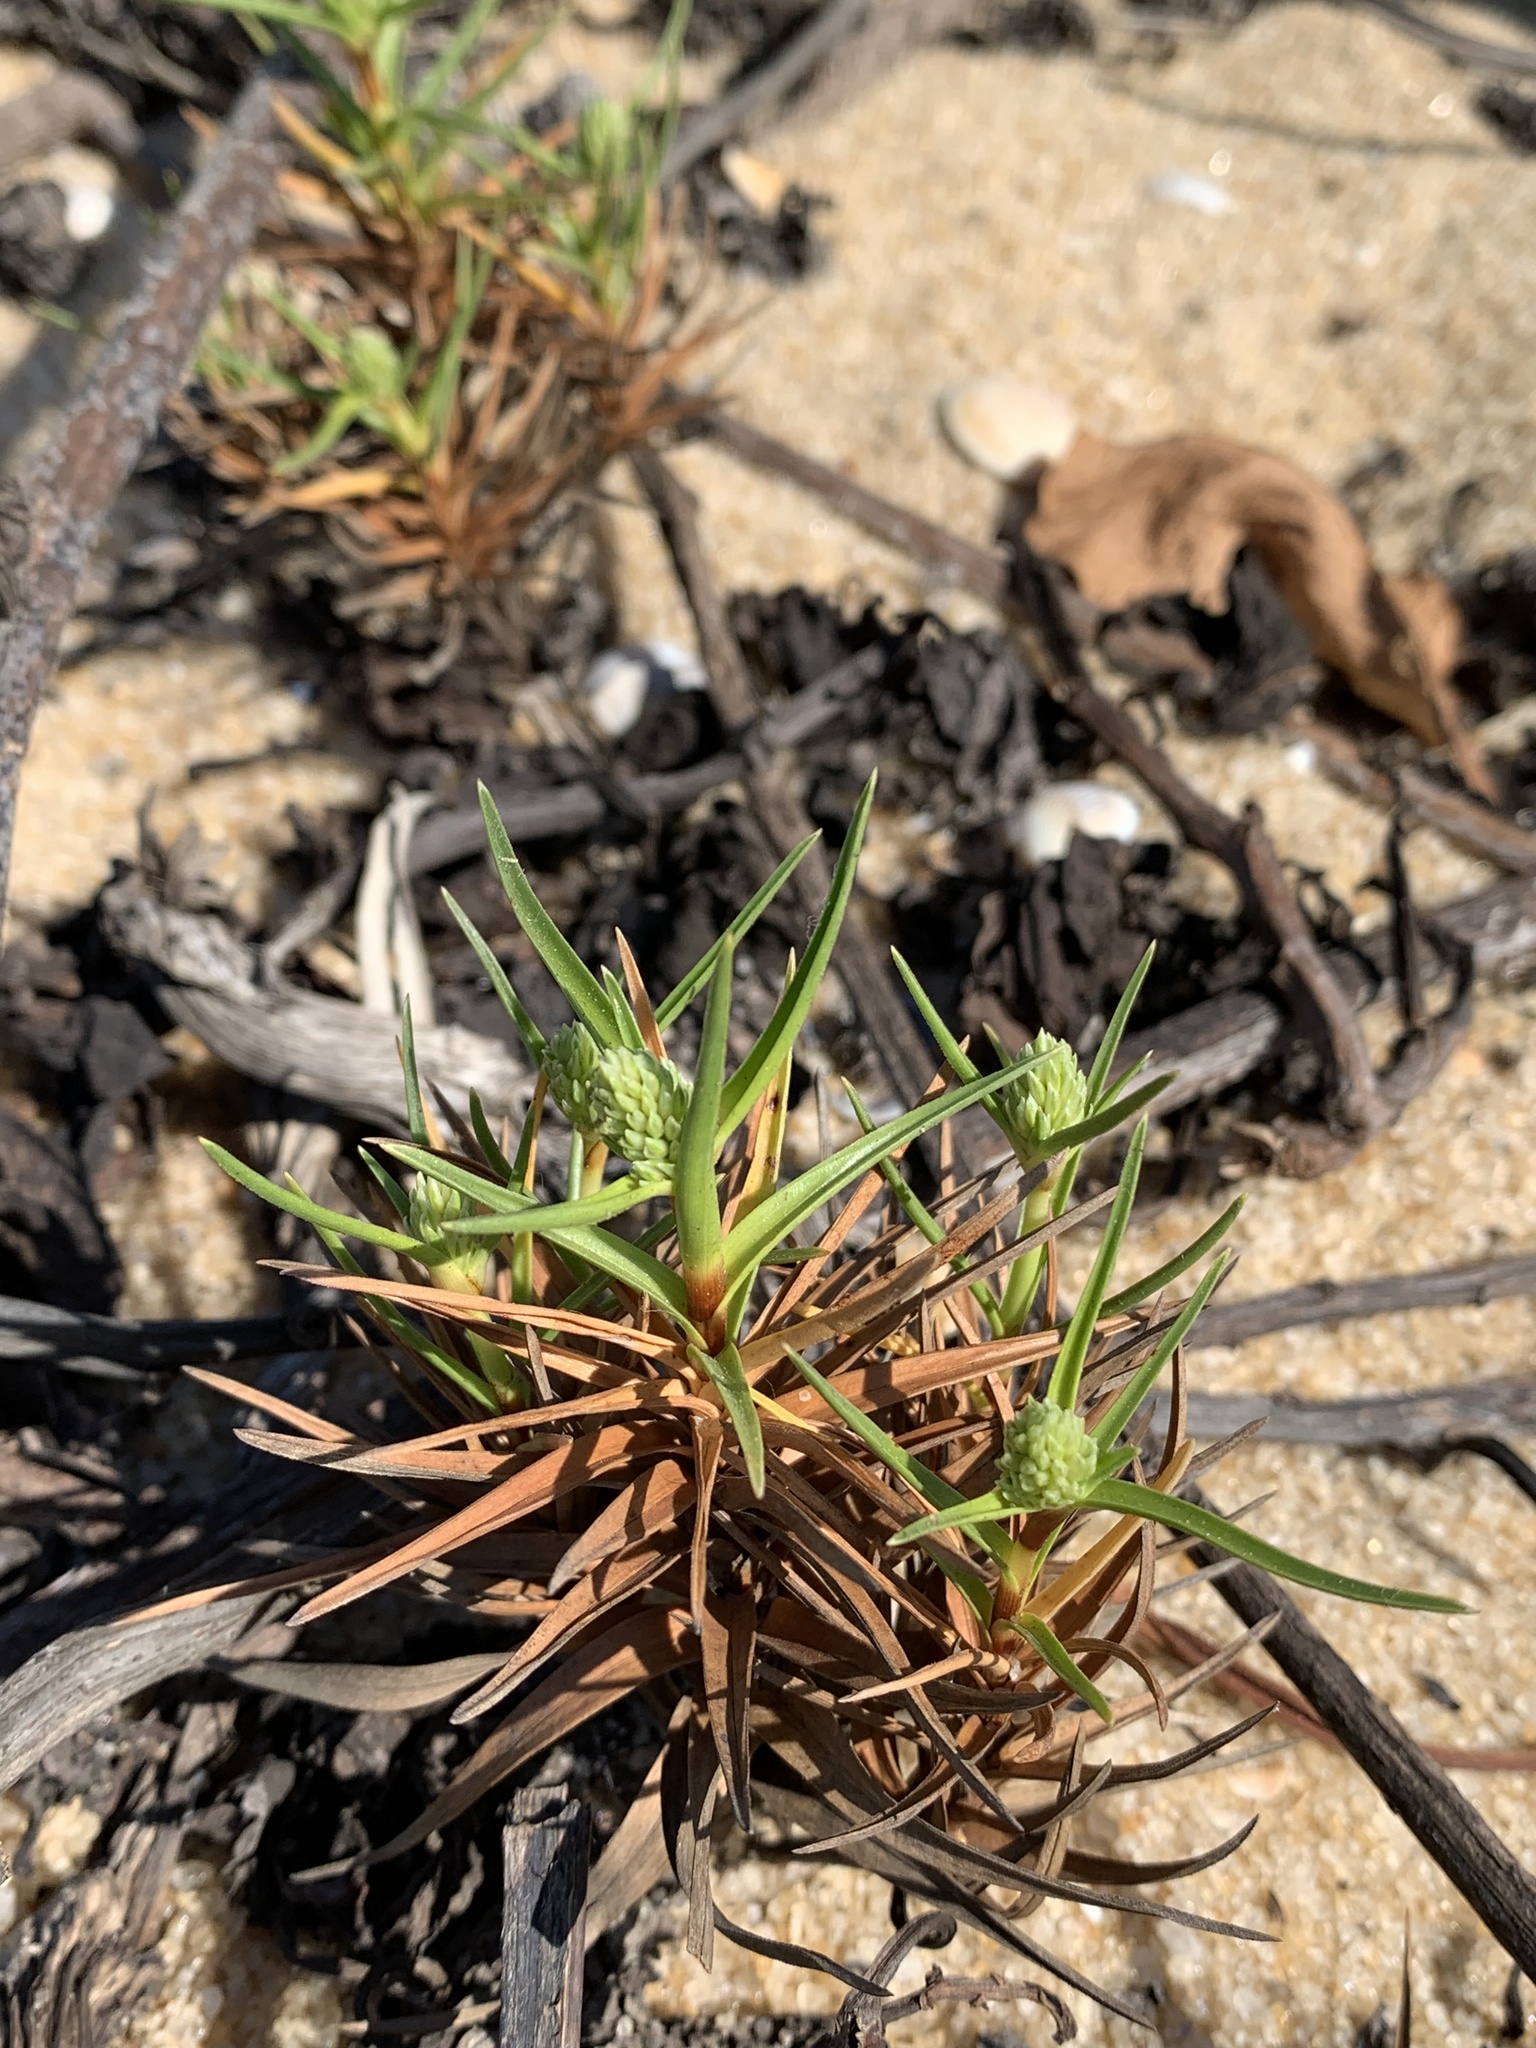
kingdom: Plantae
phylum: Tracheophyta
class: Liliopsida
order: Poales
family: Cyperaceae
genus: Cyperus
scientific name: Cyperus pedunculatus
